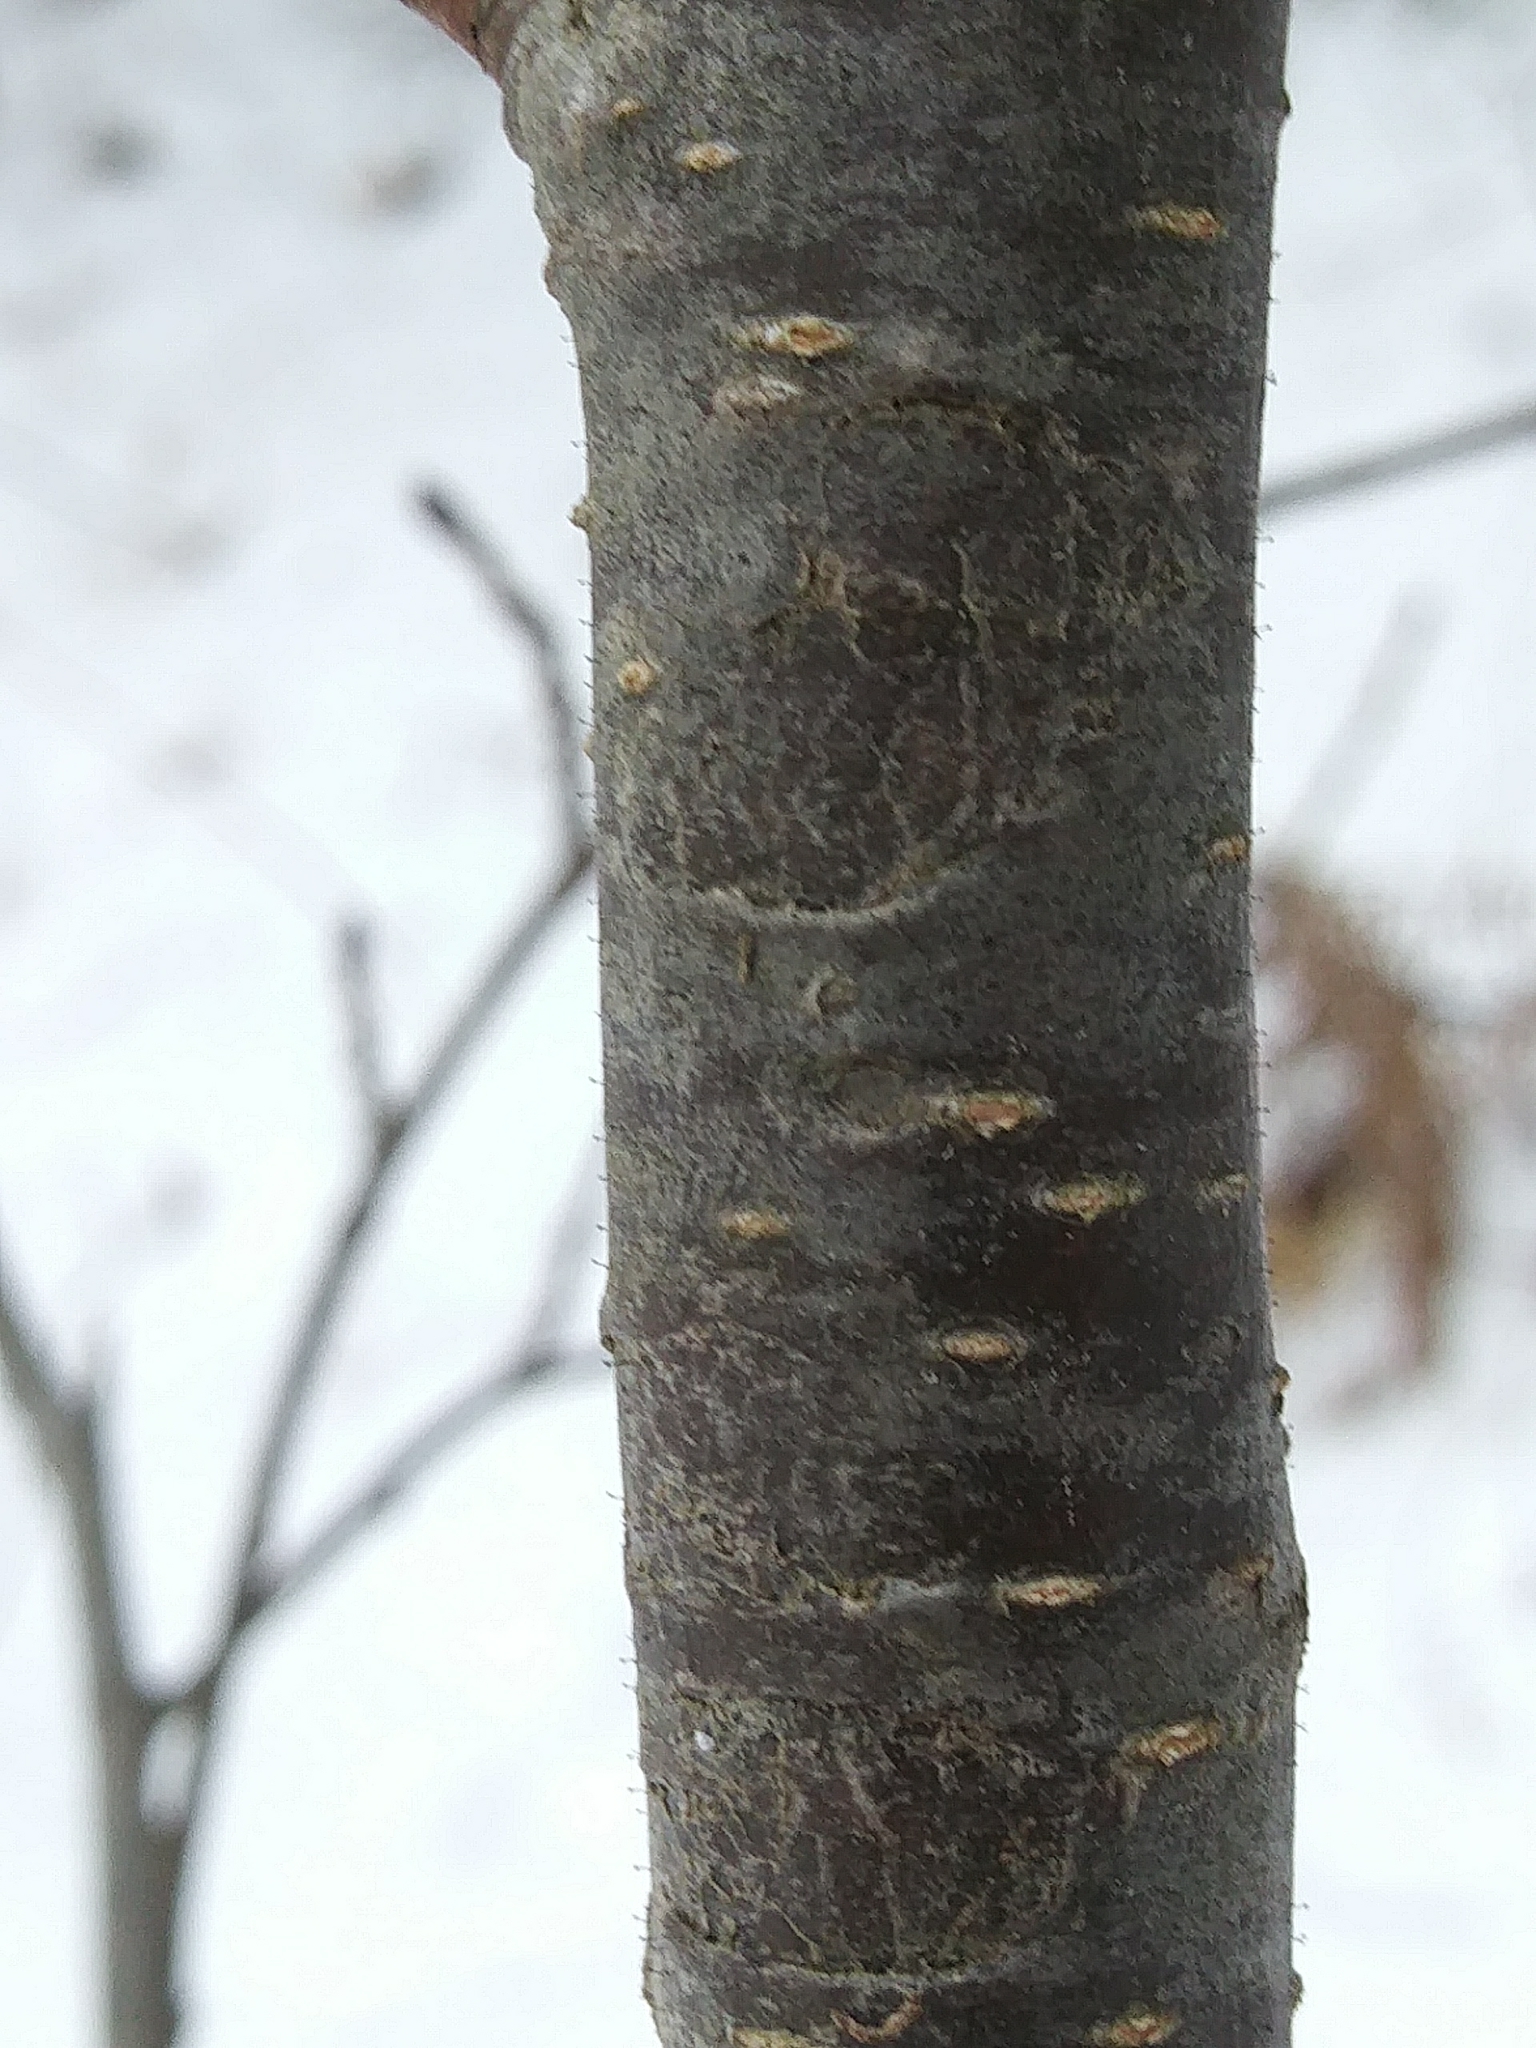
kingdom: Plantae
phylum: Tracheophyta
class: Magnoliopsida
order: Fagales
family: Betulaceae
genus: Alnus
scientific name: Alnus incana
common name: Grey alder
